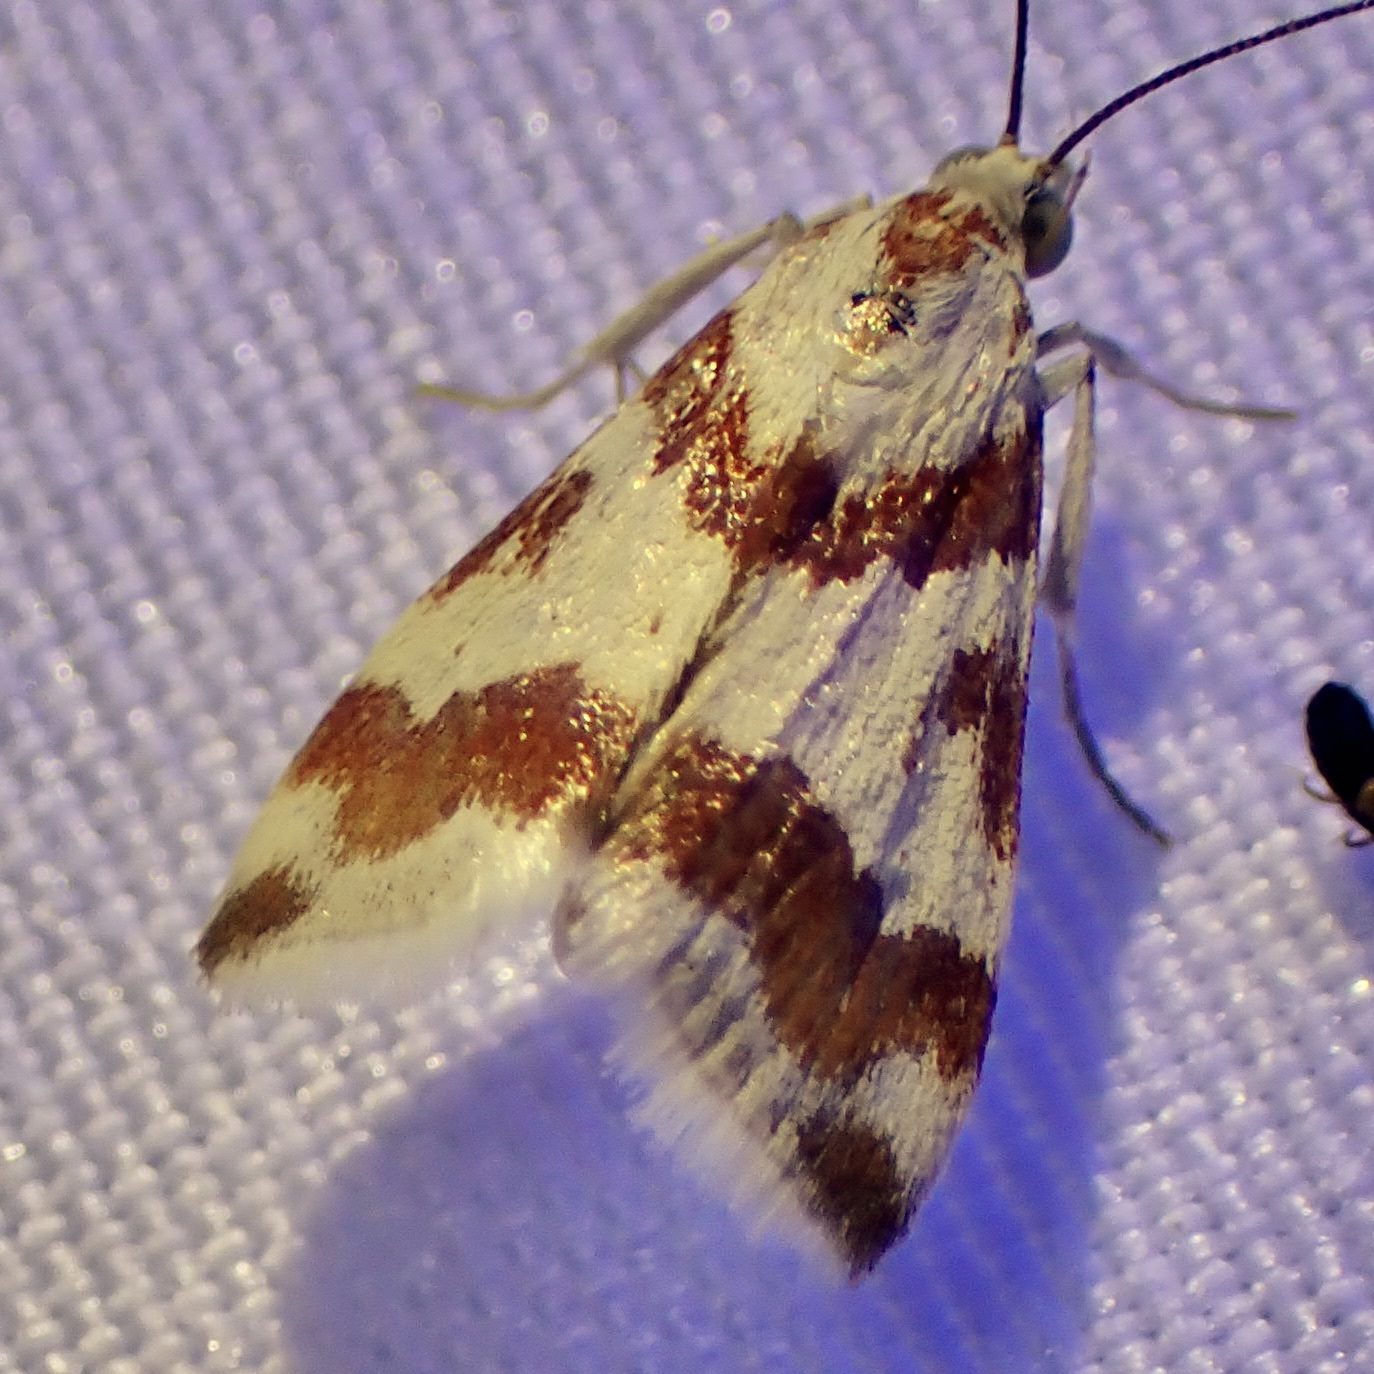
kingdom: Animalia
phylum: Arthropoda
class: Insecta
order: Lepidoptera
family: Crambidae
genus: Noctuelia
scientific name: Noctuelia Mimoschinia rufofascialis
